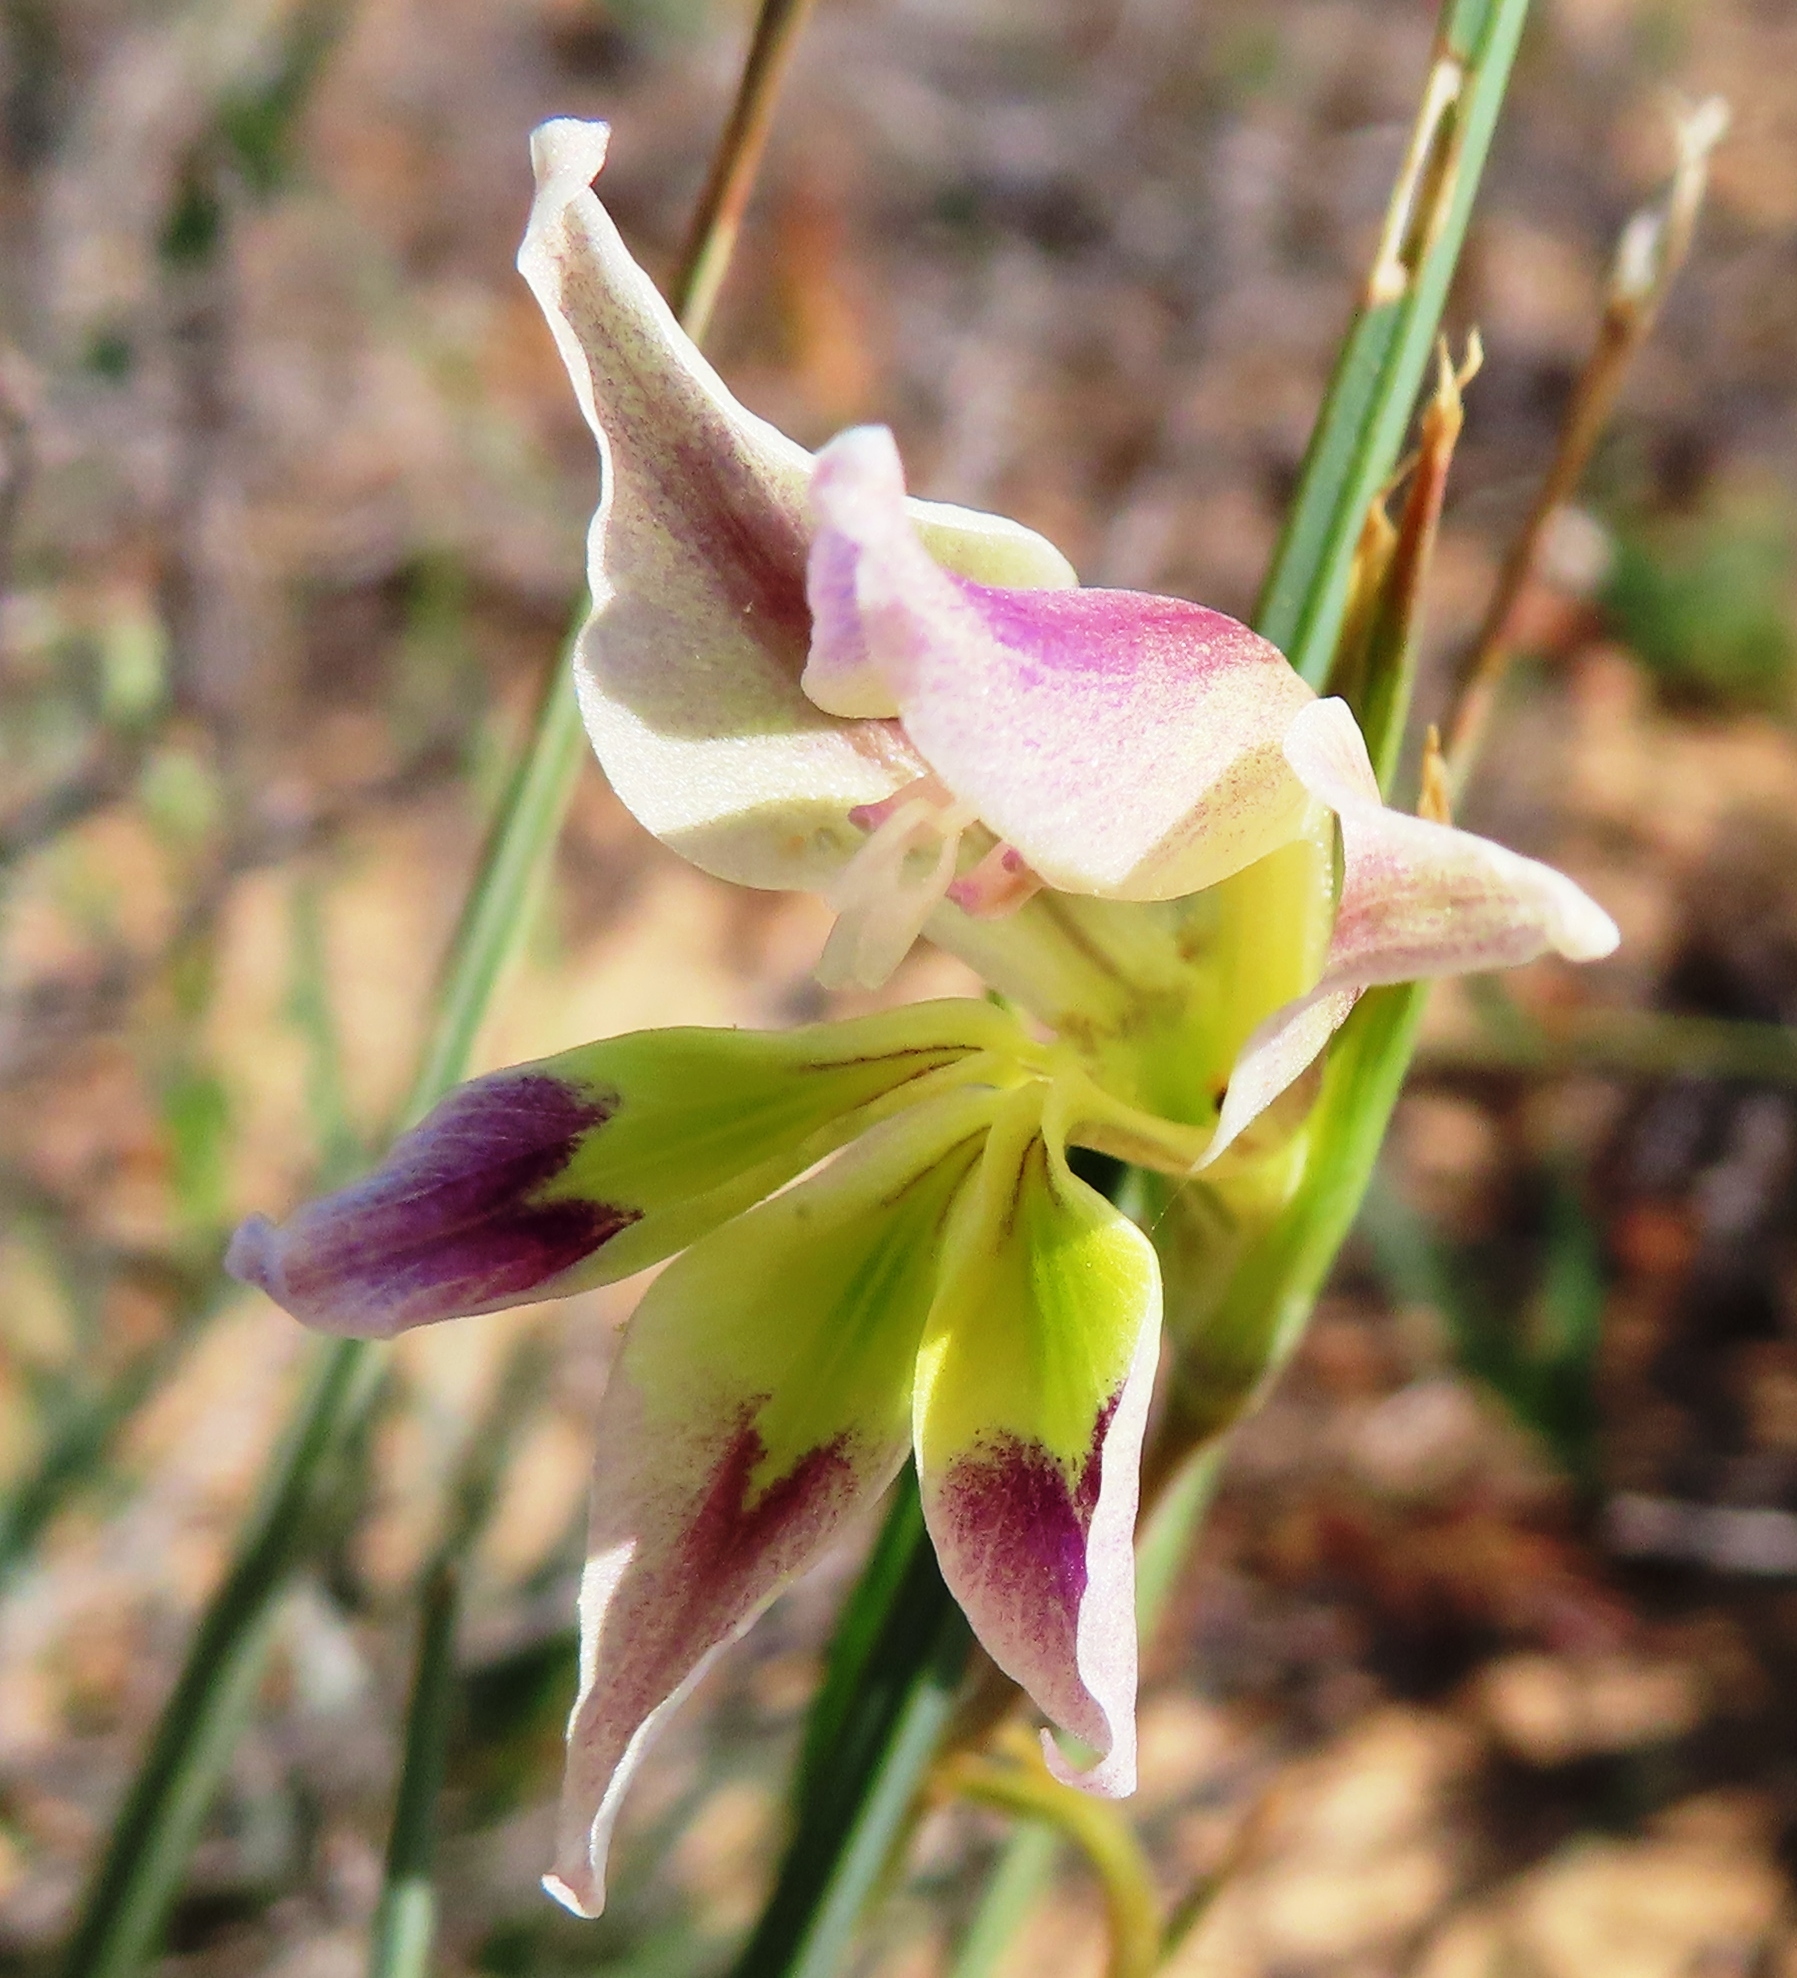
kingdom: Plantae
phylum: Tracheophyta
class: Liliopsida
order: Asparagales
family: Iridaceae
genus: Gladiolus
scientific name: Gladiolus scullyi
